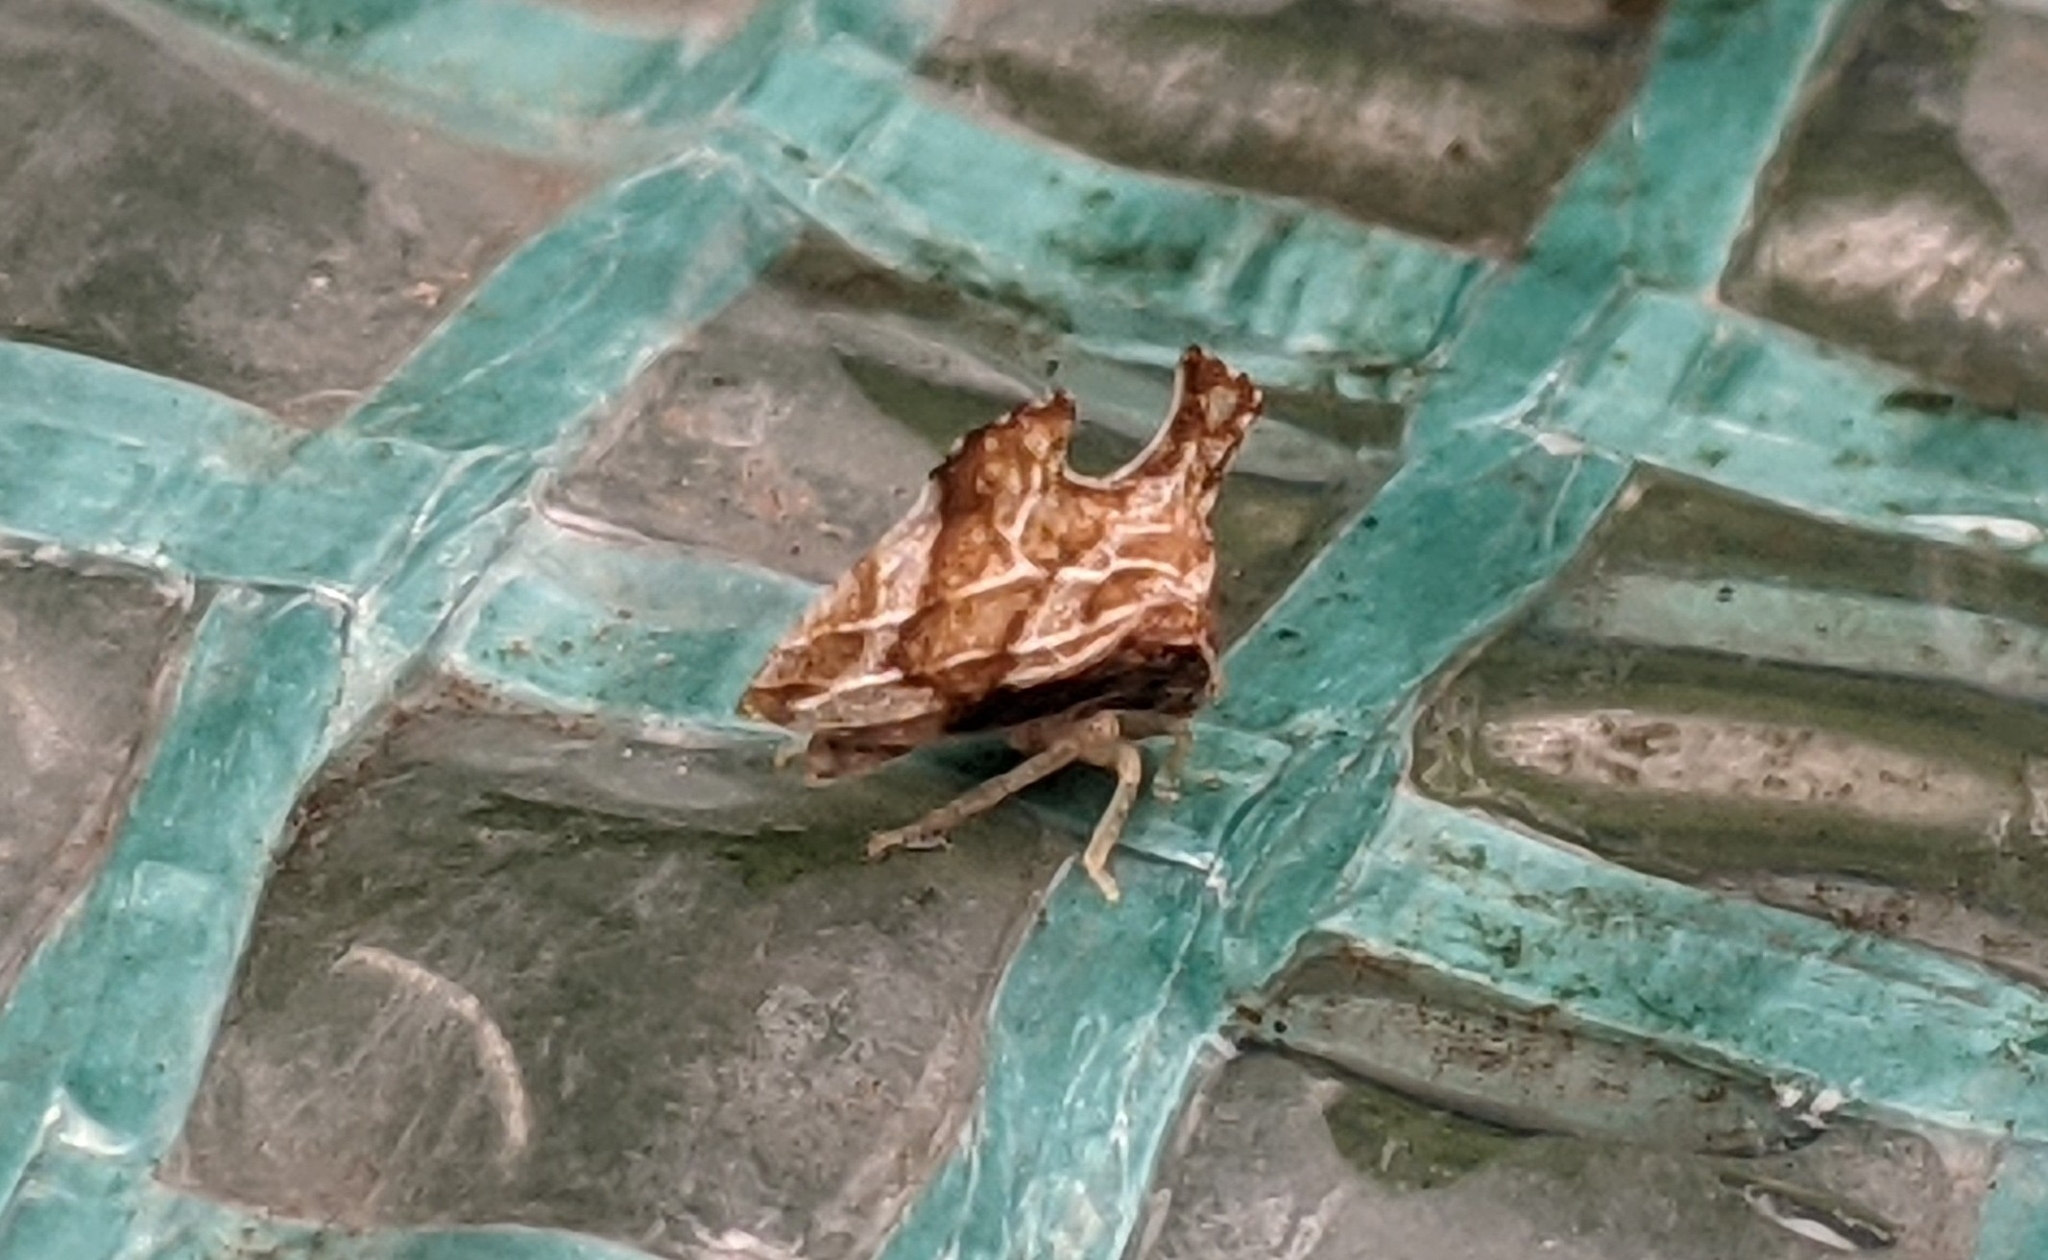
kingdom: Animalia
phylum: Arthropoda
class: Insecta
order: Hemiptera
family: Membracidae
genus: Entylia
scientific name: Entylia carinata
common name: Keeled treehopper
